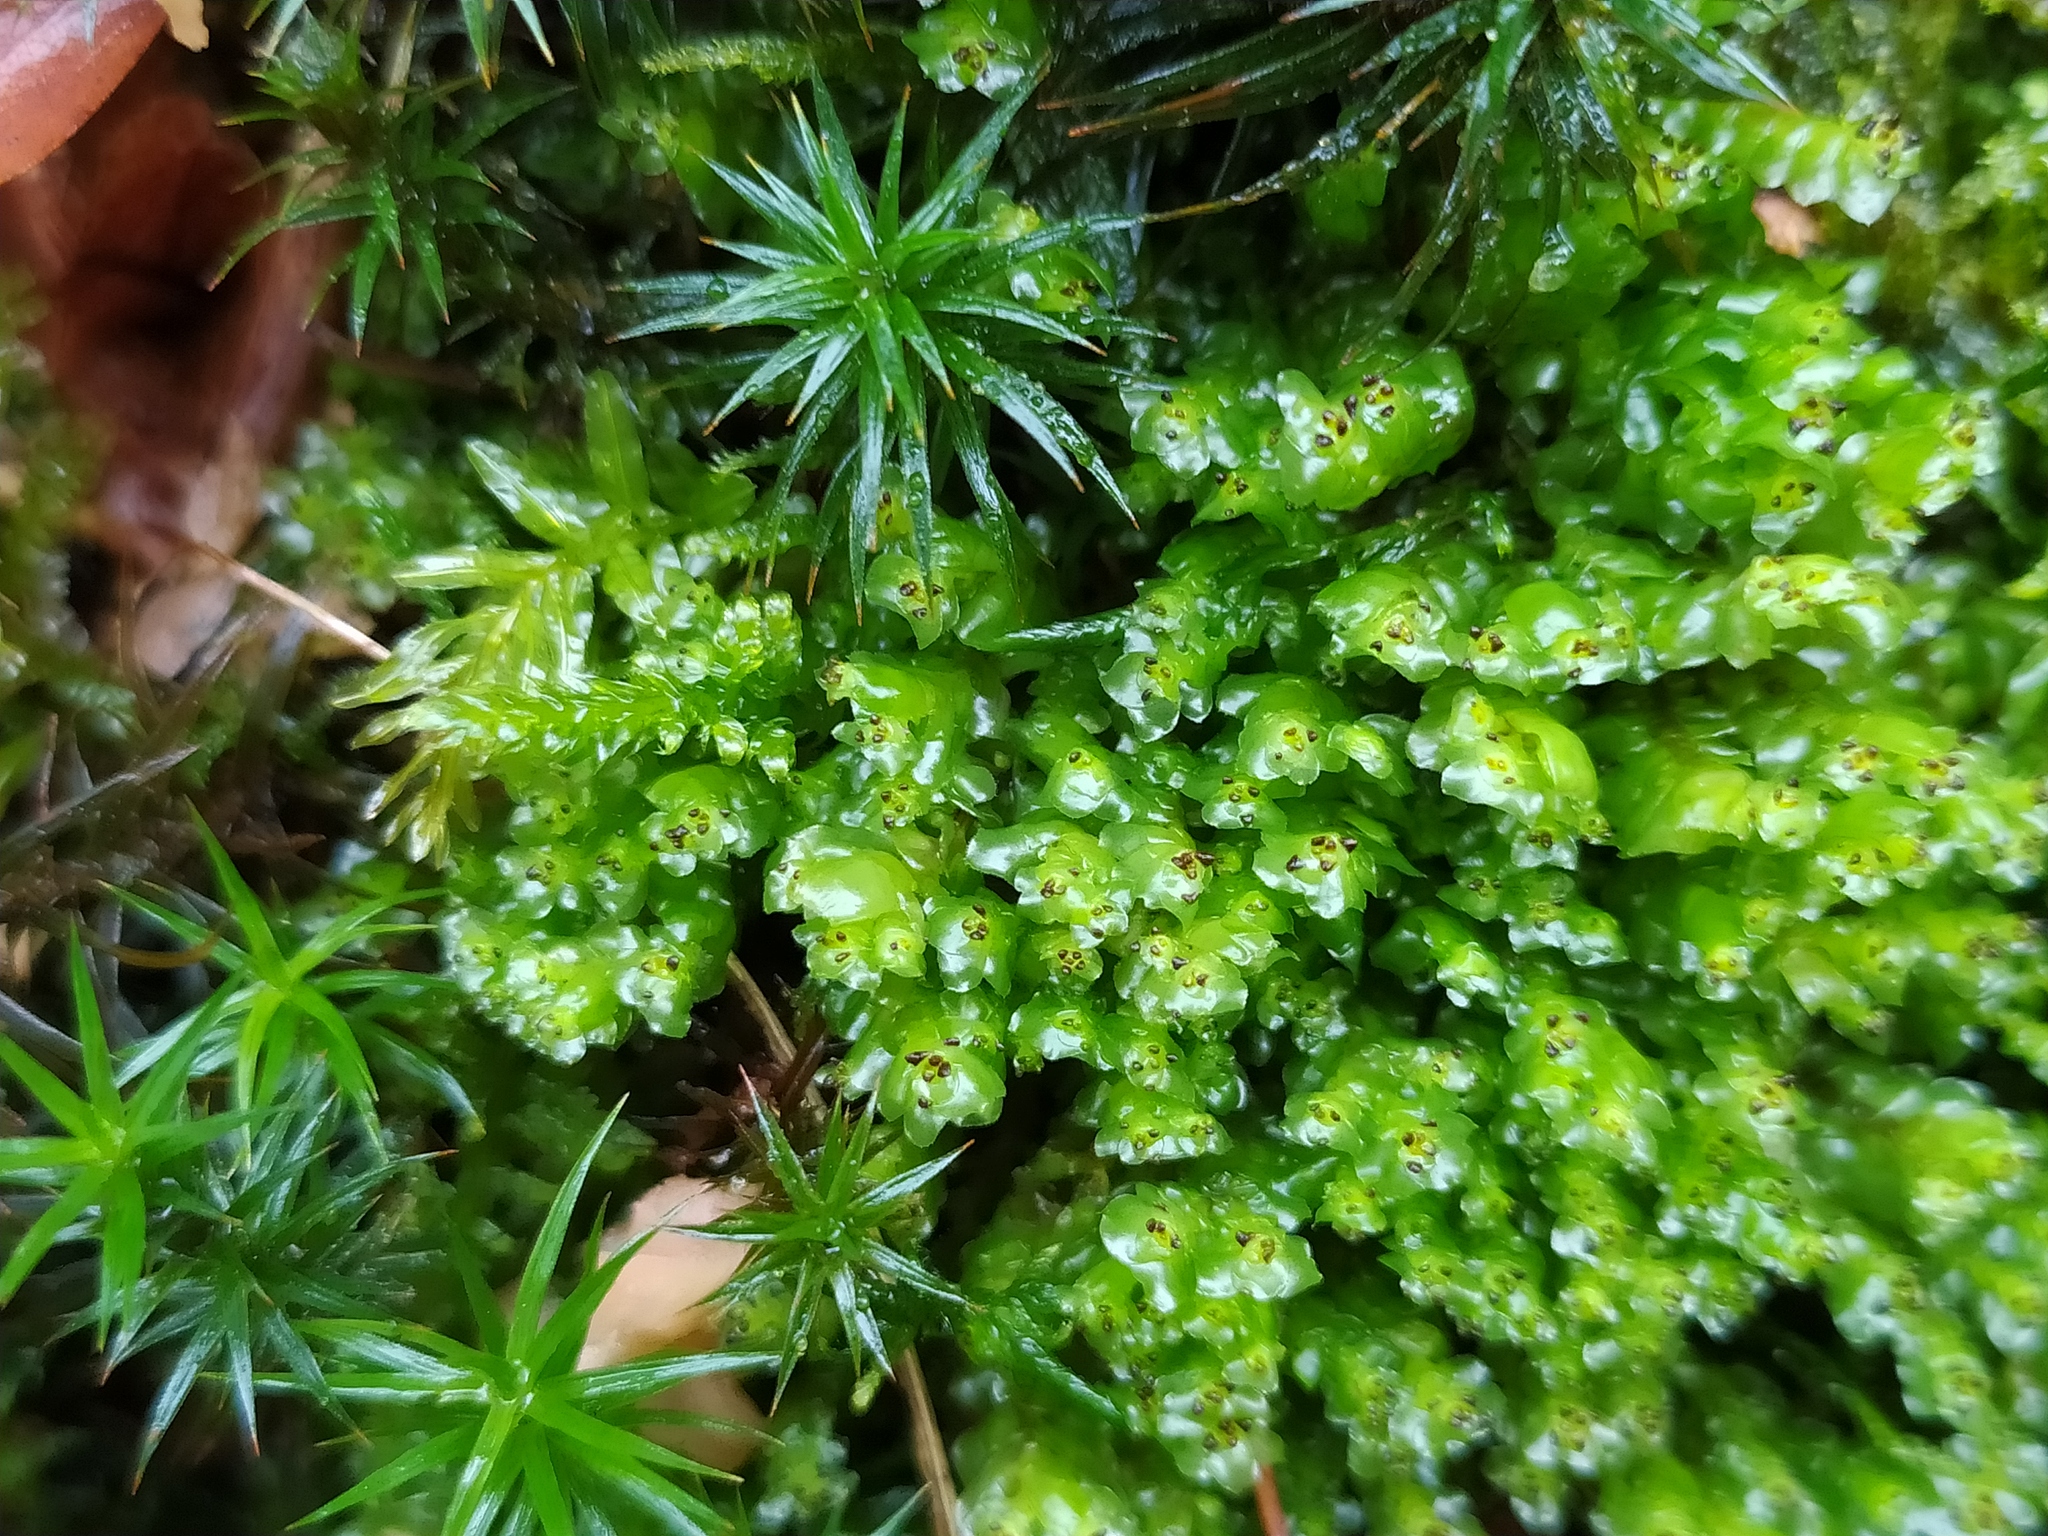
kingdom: Plantae
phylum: Marchantiophyta
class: Jungermanniopsida
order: Jungermanniales
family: Scapaniaceae
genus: Scapania
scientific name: Scapania nemorea
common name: Grove earwort
